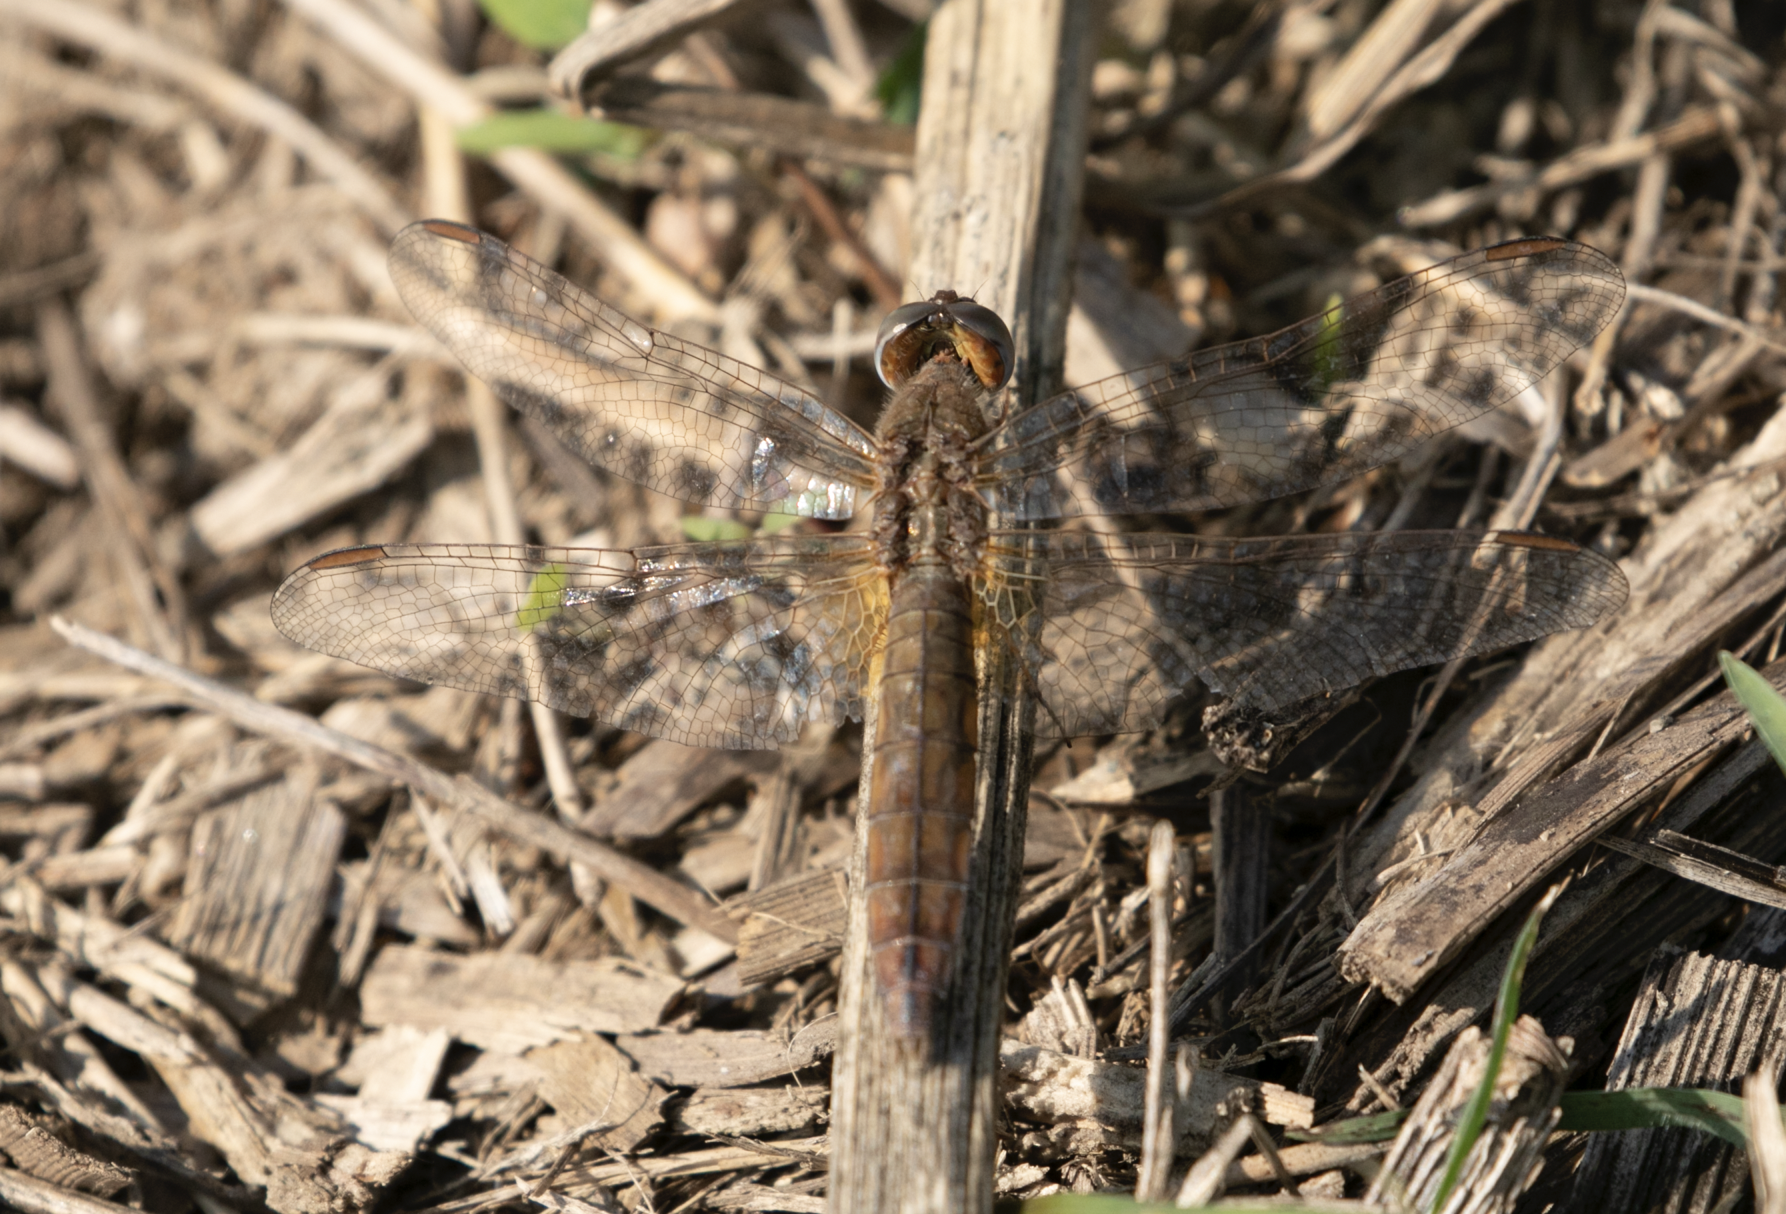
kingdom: Animalia
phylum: Arthropoda
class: Insecta
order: Odonata
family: Libellulidae
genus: Crocothemis
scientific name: Crocothemis erythraea
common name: Scarlet dragonfly
